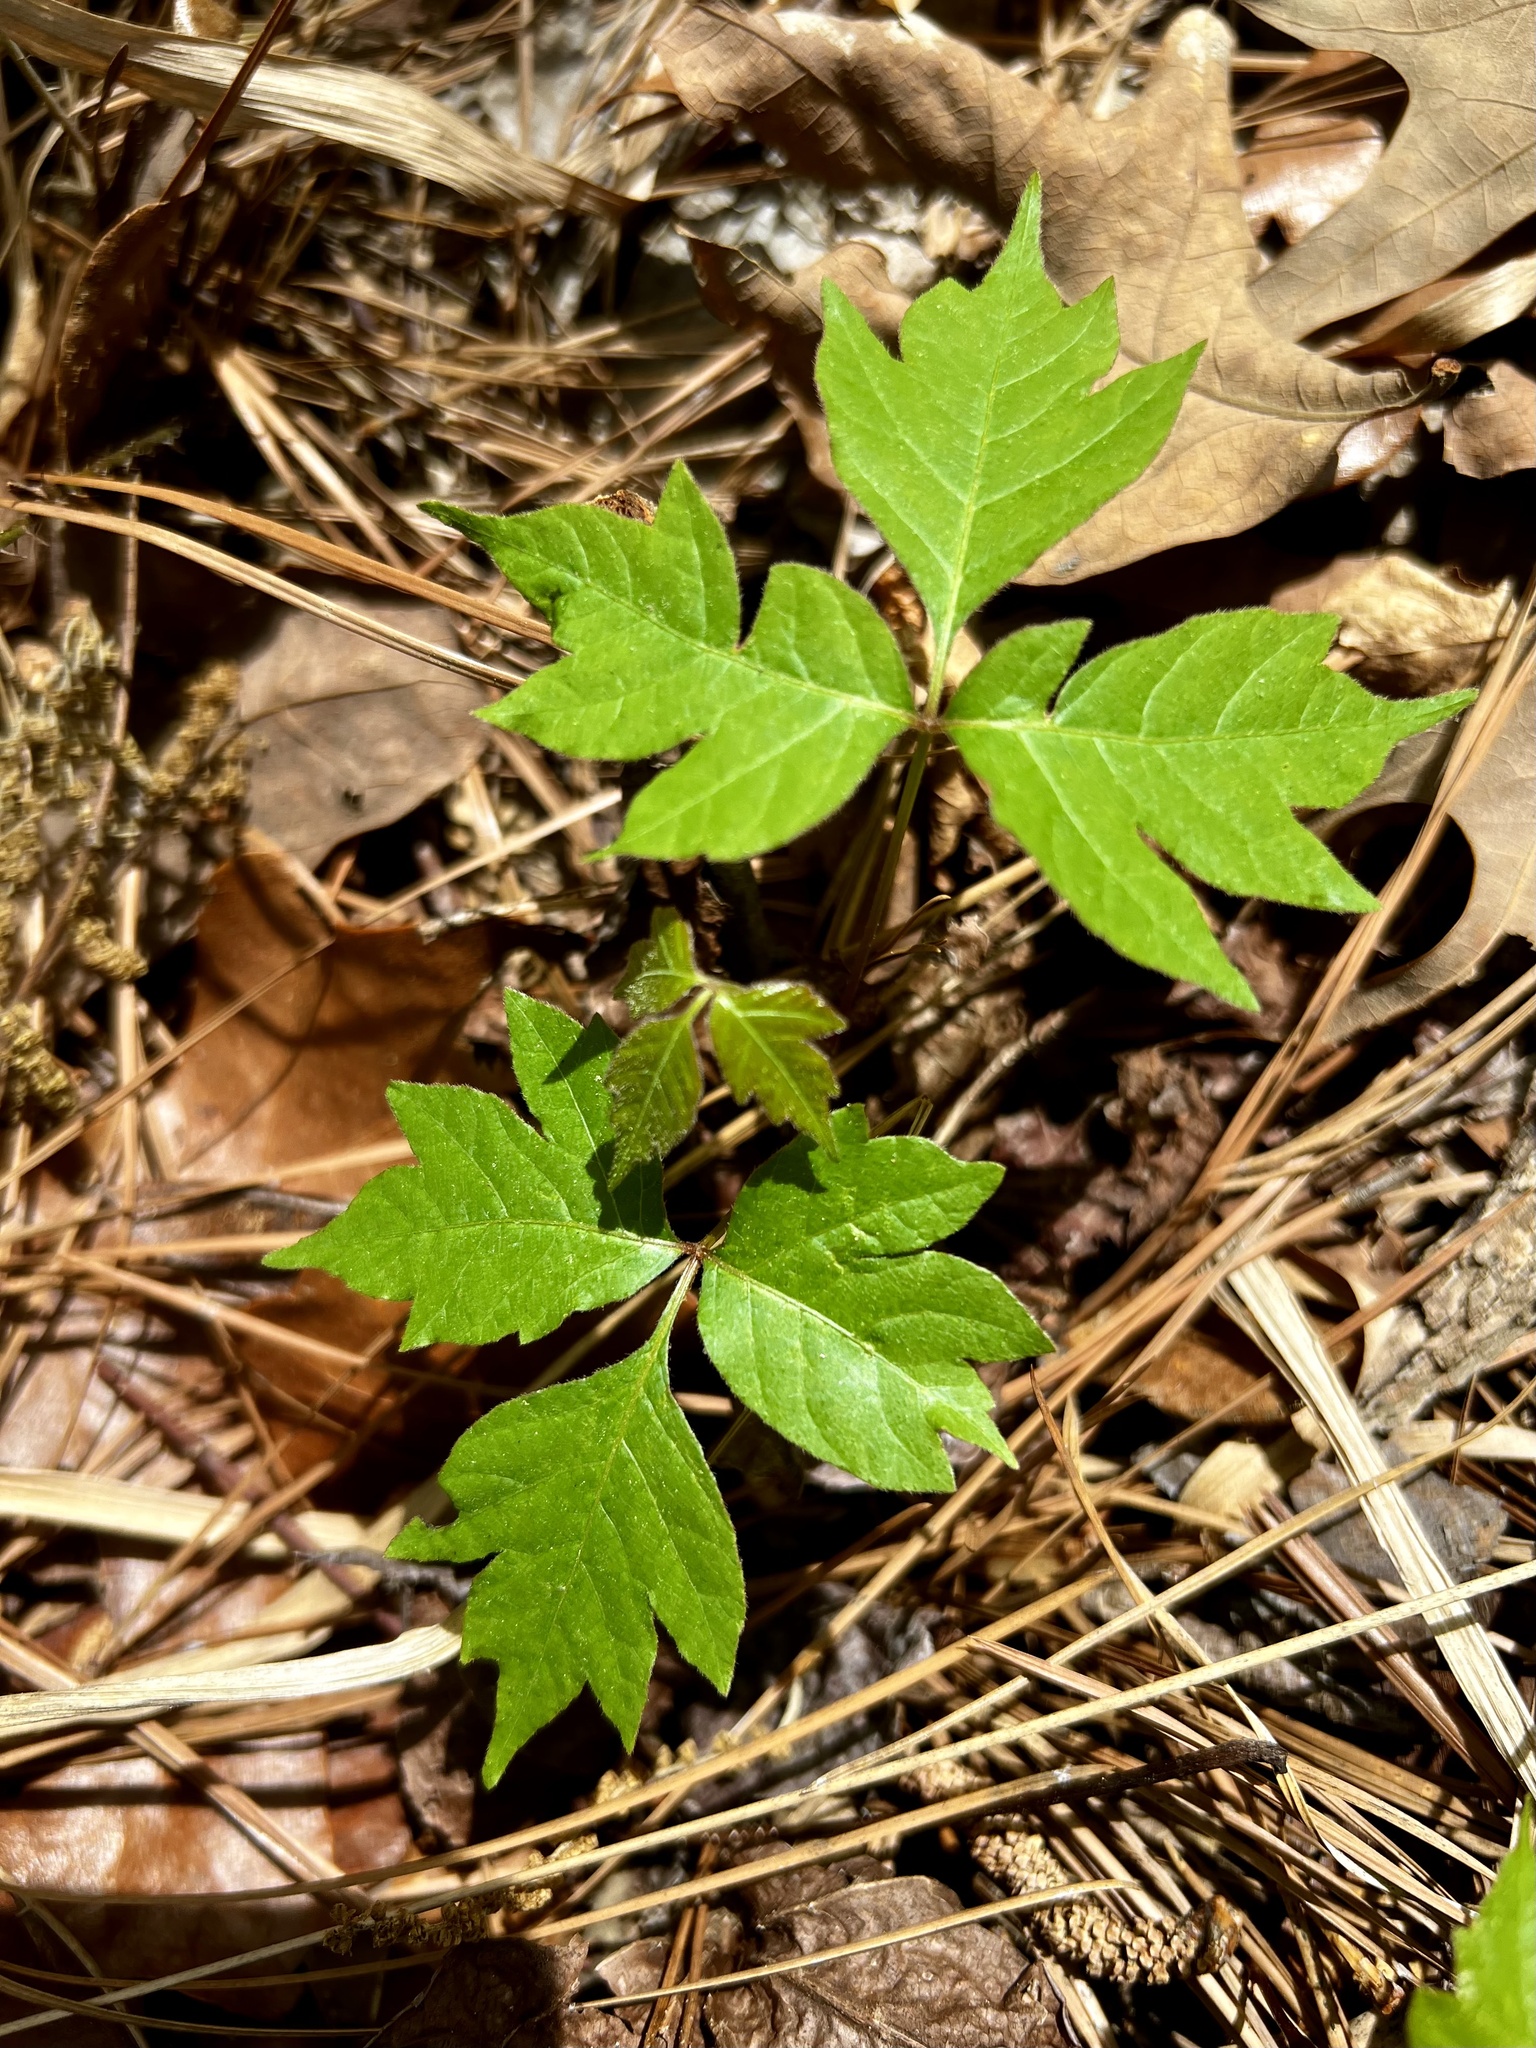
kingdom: Plantae
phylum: Tracheophyta
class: Magnoliopsida
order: Sapindales
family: Anacardiaceae
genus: Toxicodendron
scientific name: Toxicodendron radicans
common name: Poison ivy
